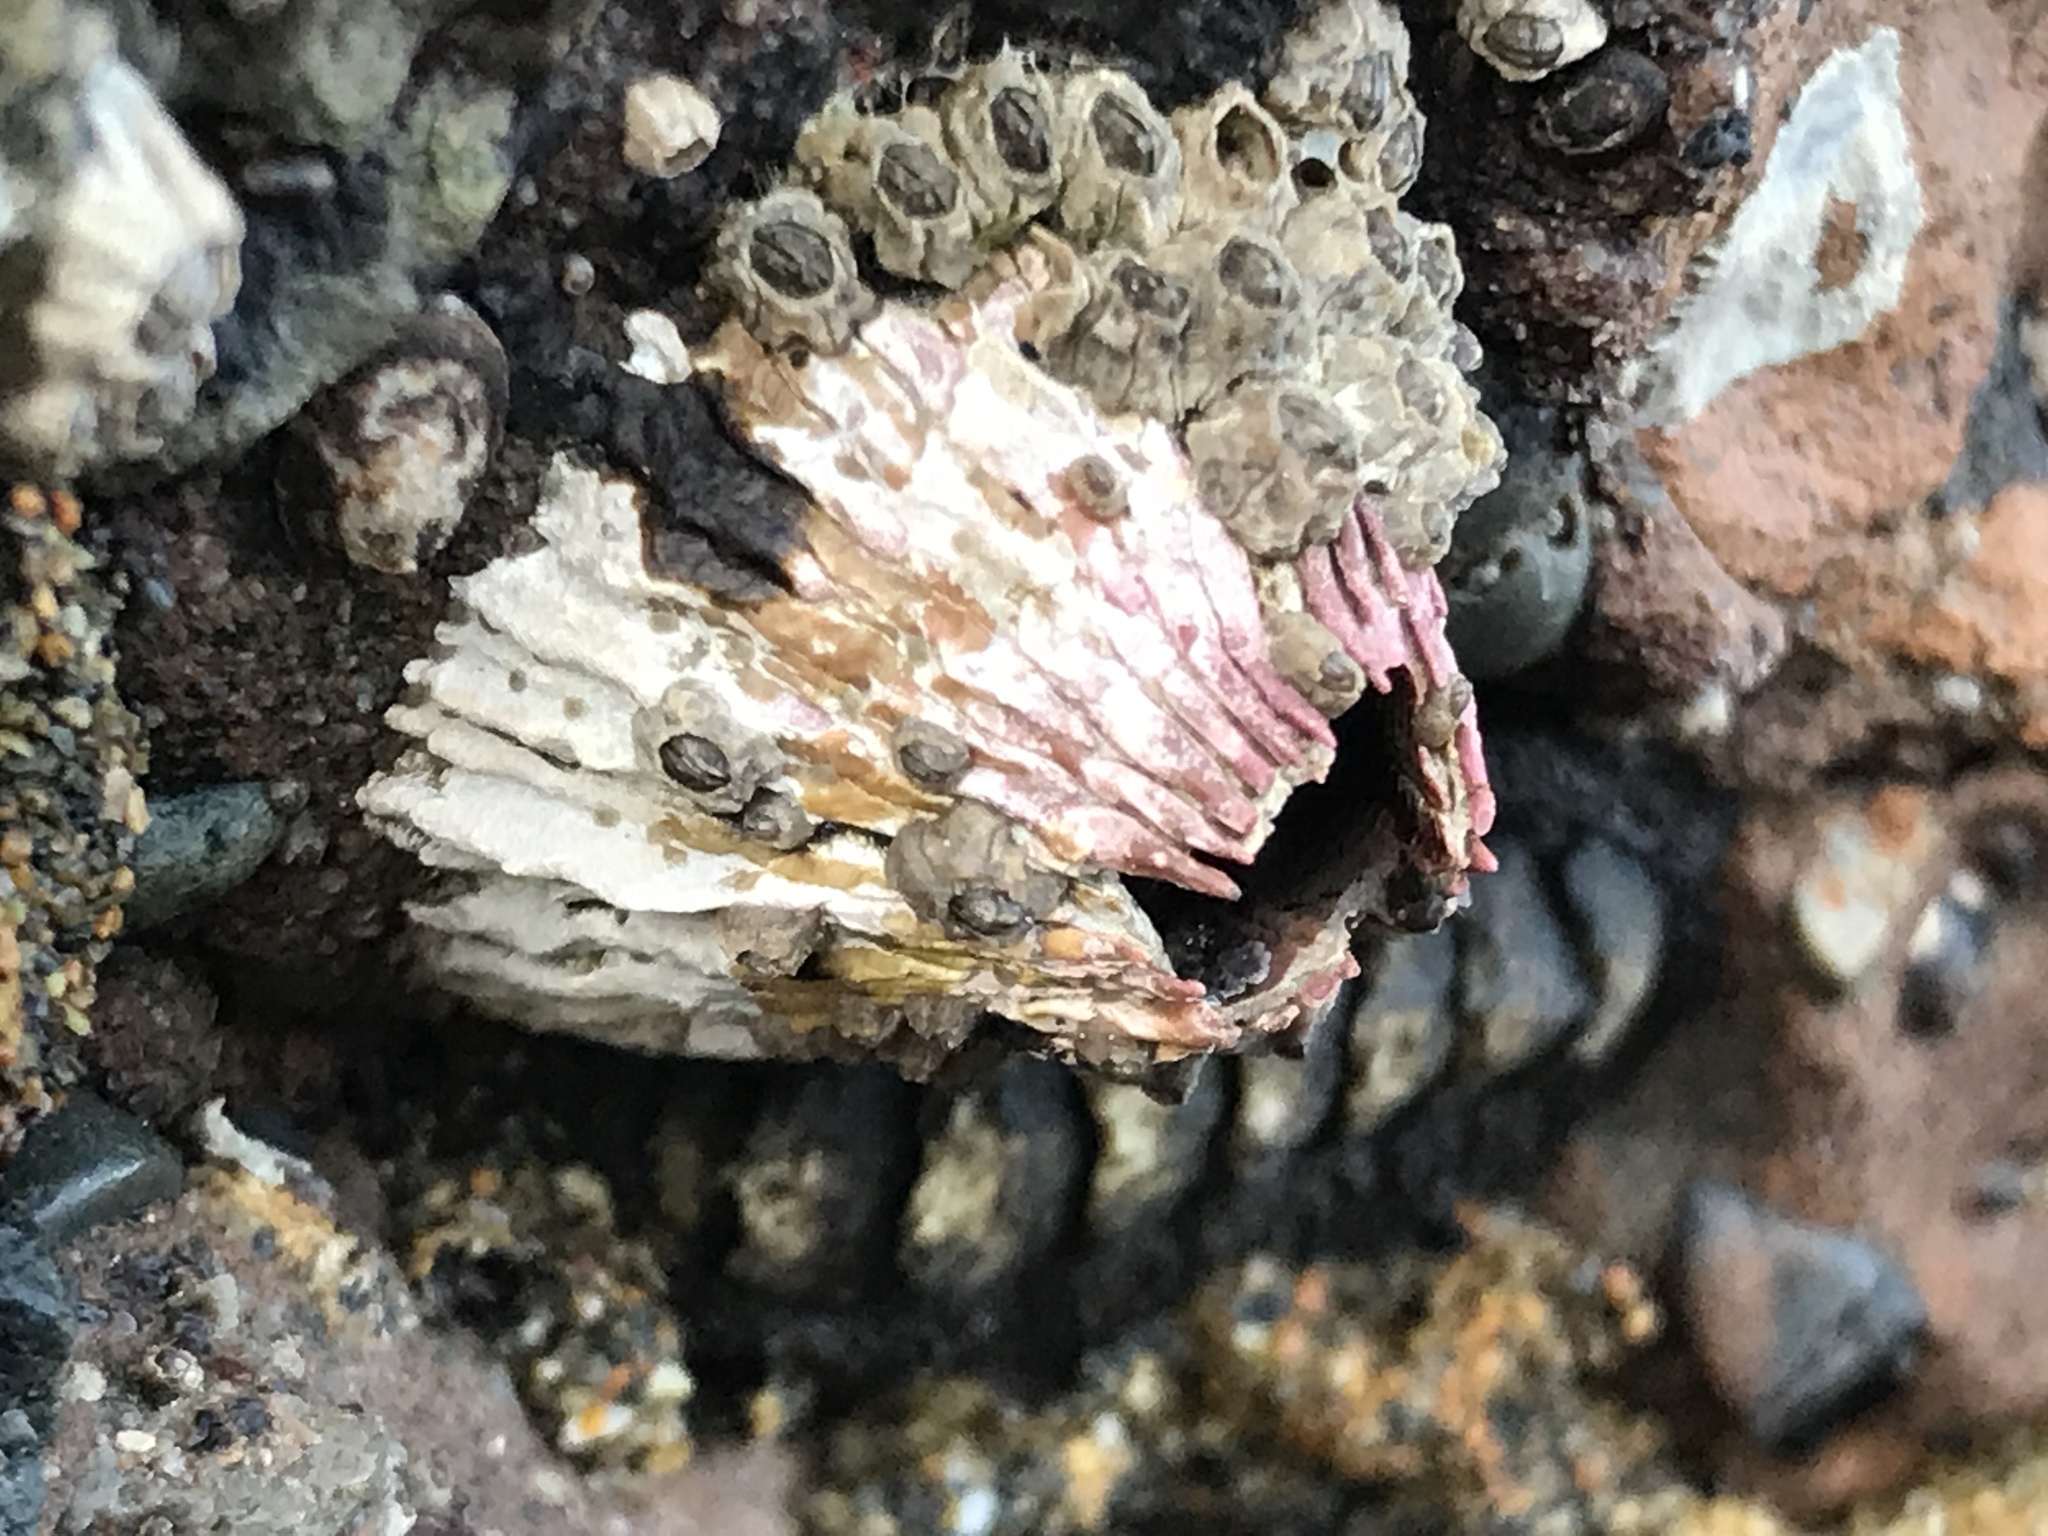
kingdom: Animalia
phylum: Arthropoda
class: Maxillopoda
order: Sessilia
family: Tetraclitidae
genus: Tetraclita
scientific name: Tetraclita rubescens
